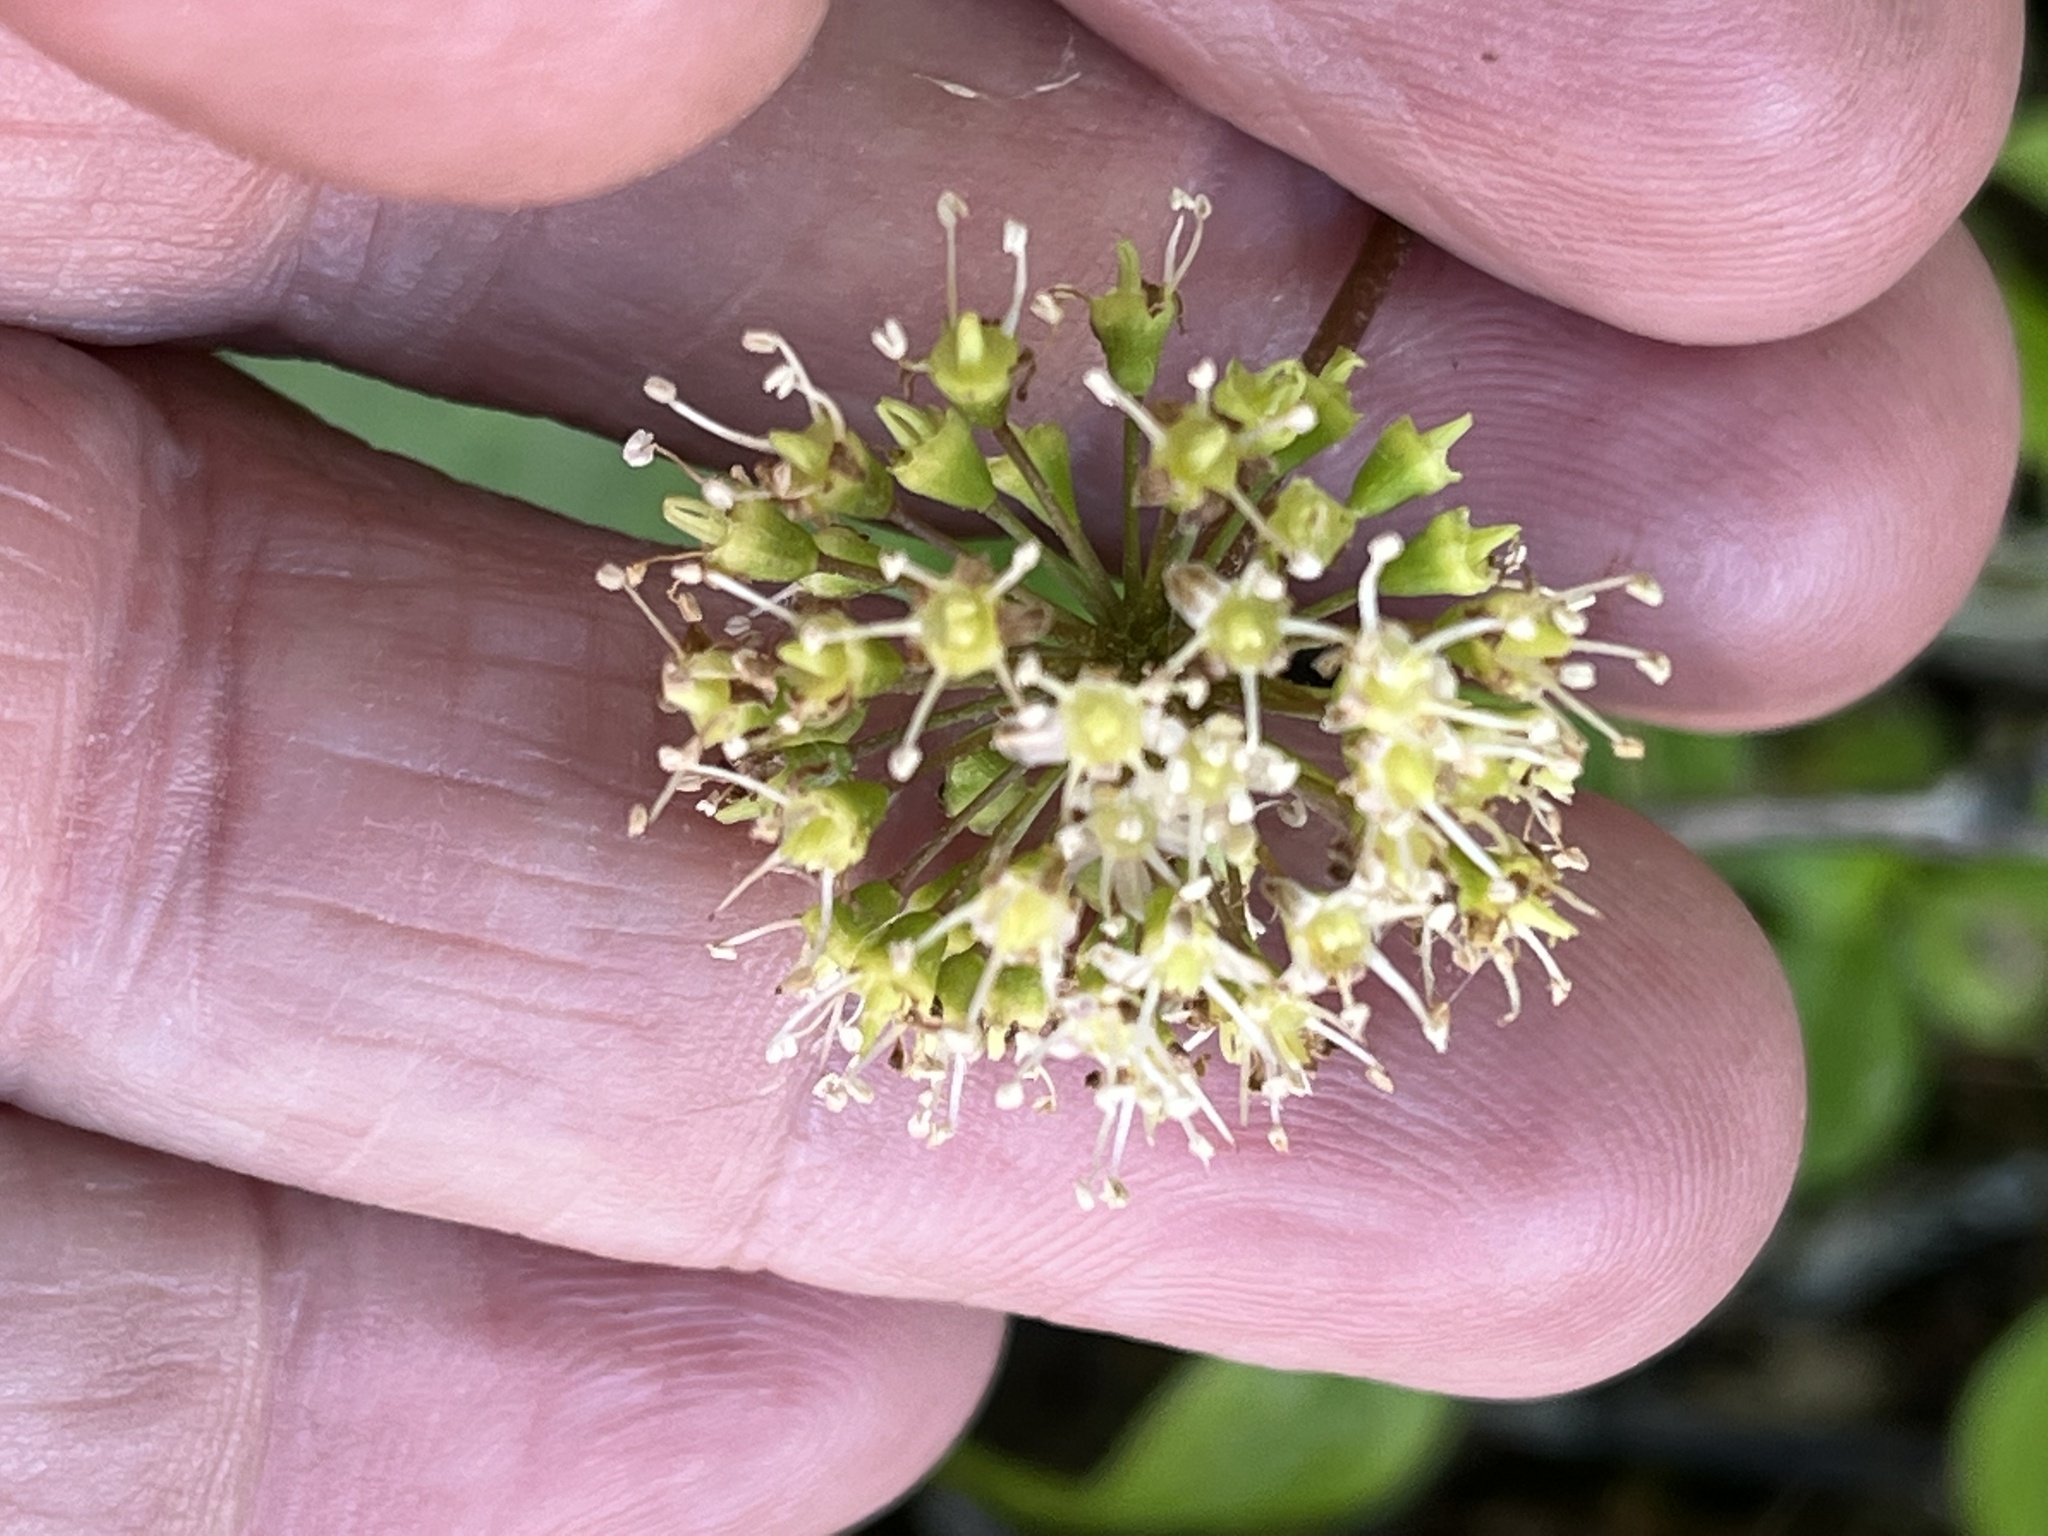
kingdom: Plantae
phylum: Tracheophyta
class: Magnoliopsida
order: Apiales
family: Araliaceae
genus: Aralia
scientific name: Aralia nudicaulis
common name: Wild sarsaparilla
